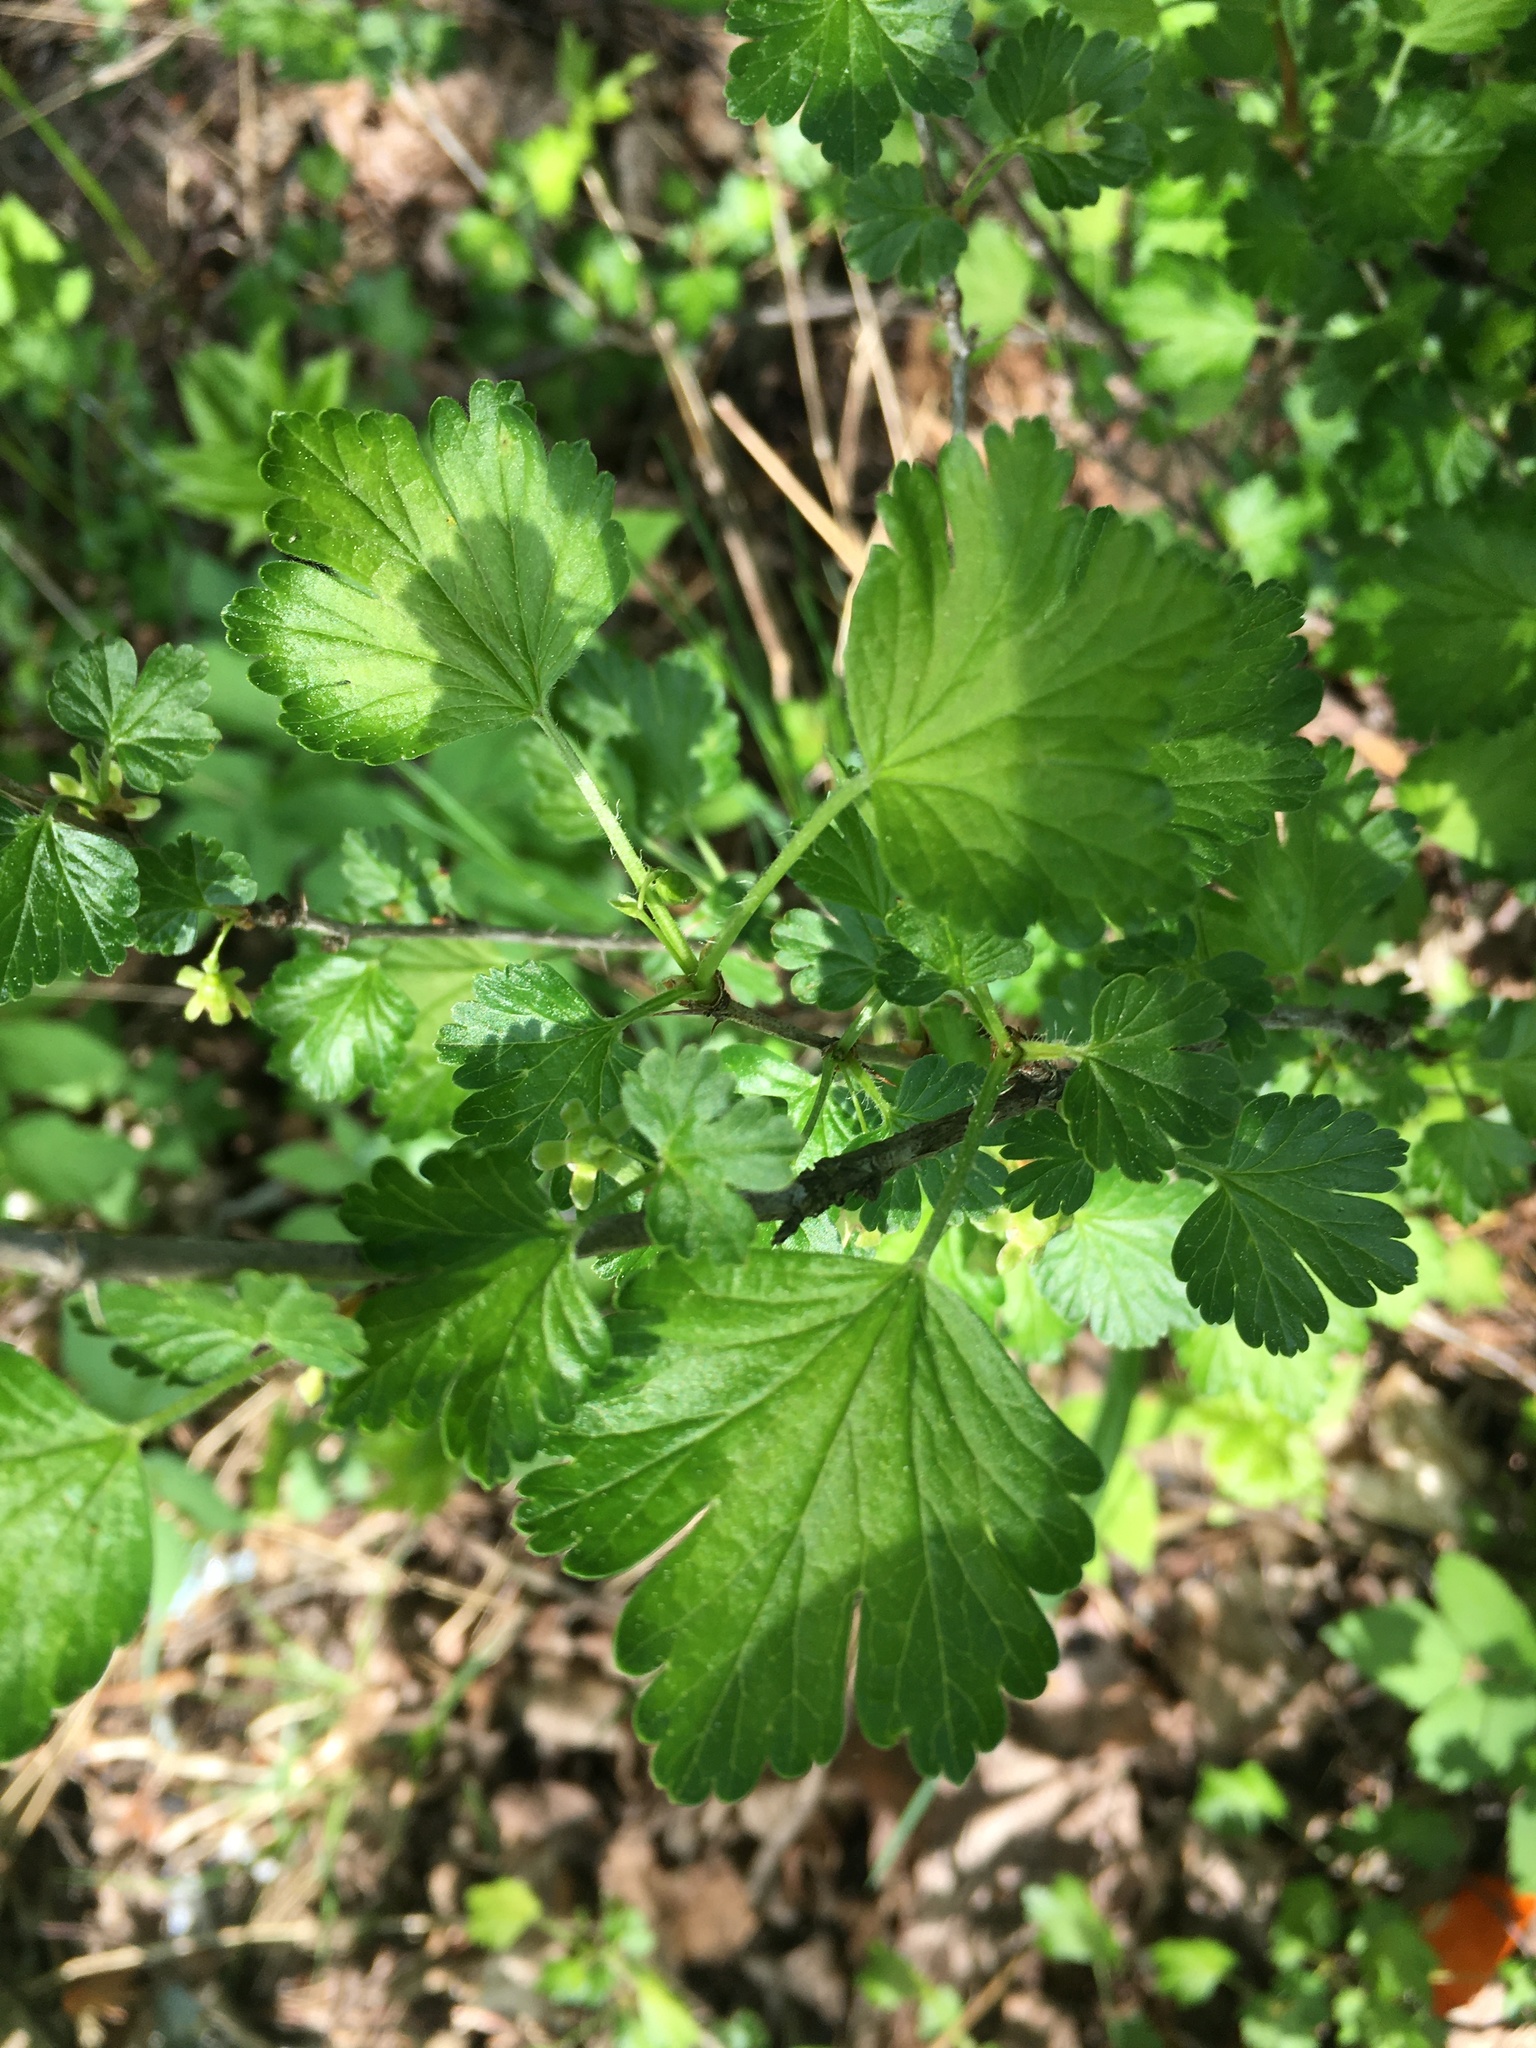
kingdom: Plantae
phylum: Tracheophyta
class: Magnoliopsida
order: Saxifragales
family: Grossulariaceae
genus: Ribes
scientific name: Ribes uva-crispa
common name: Gooseberry
